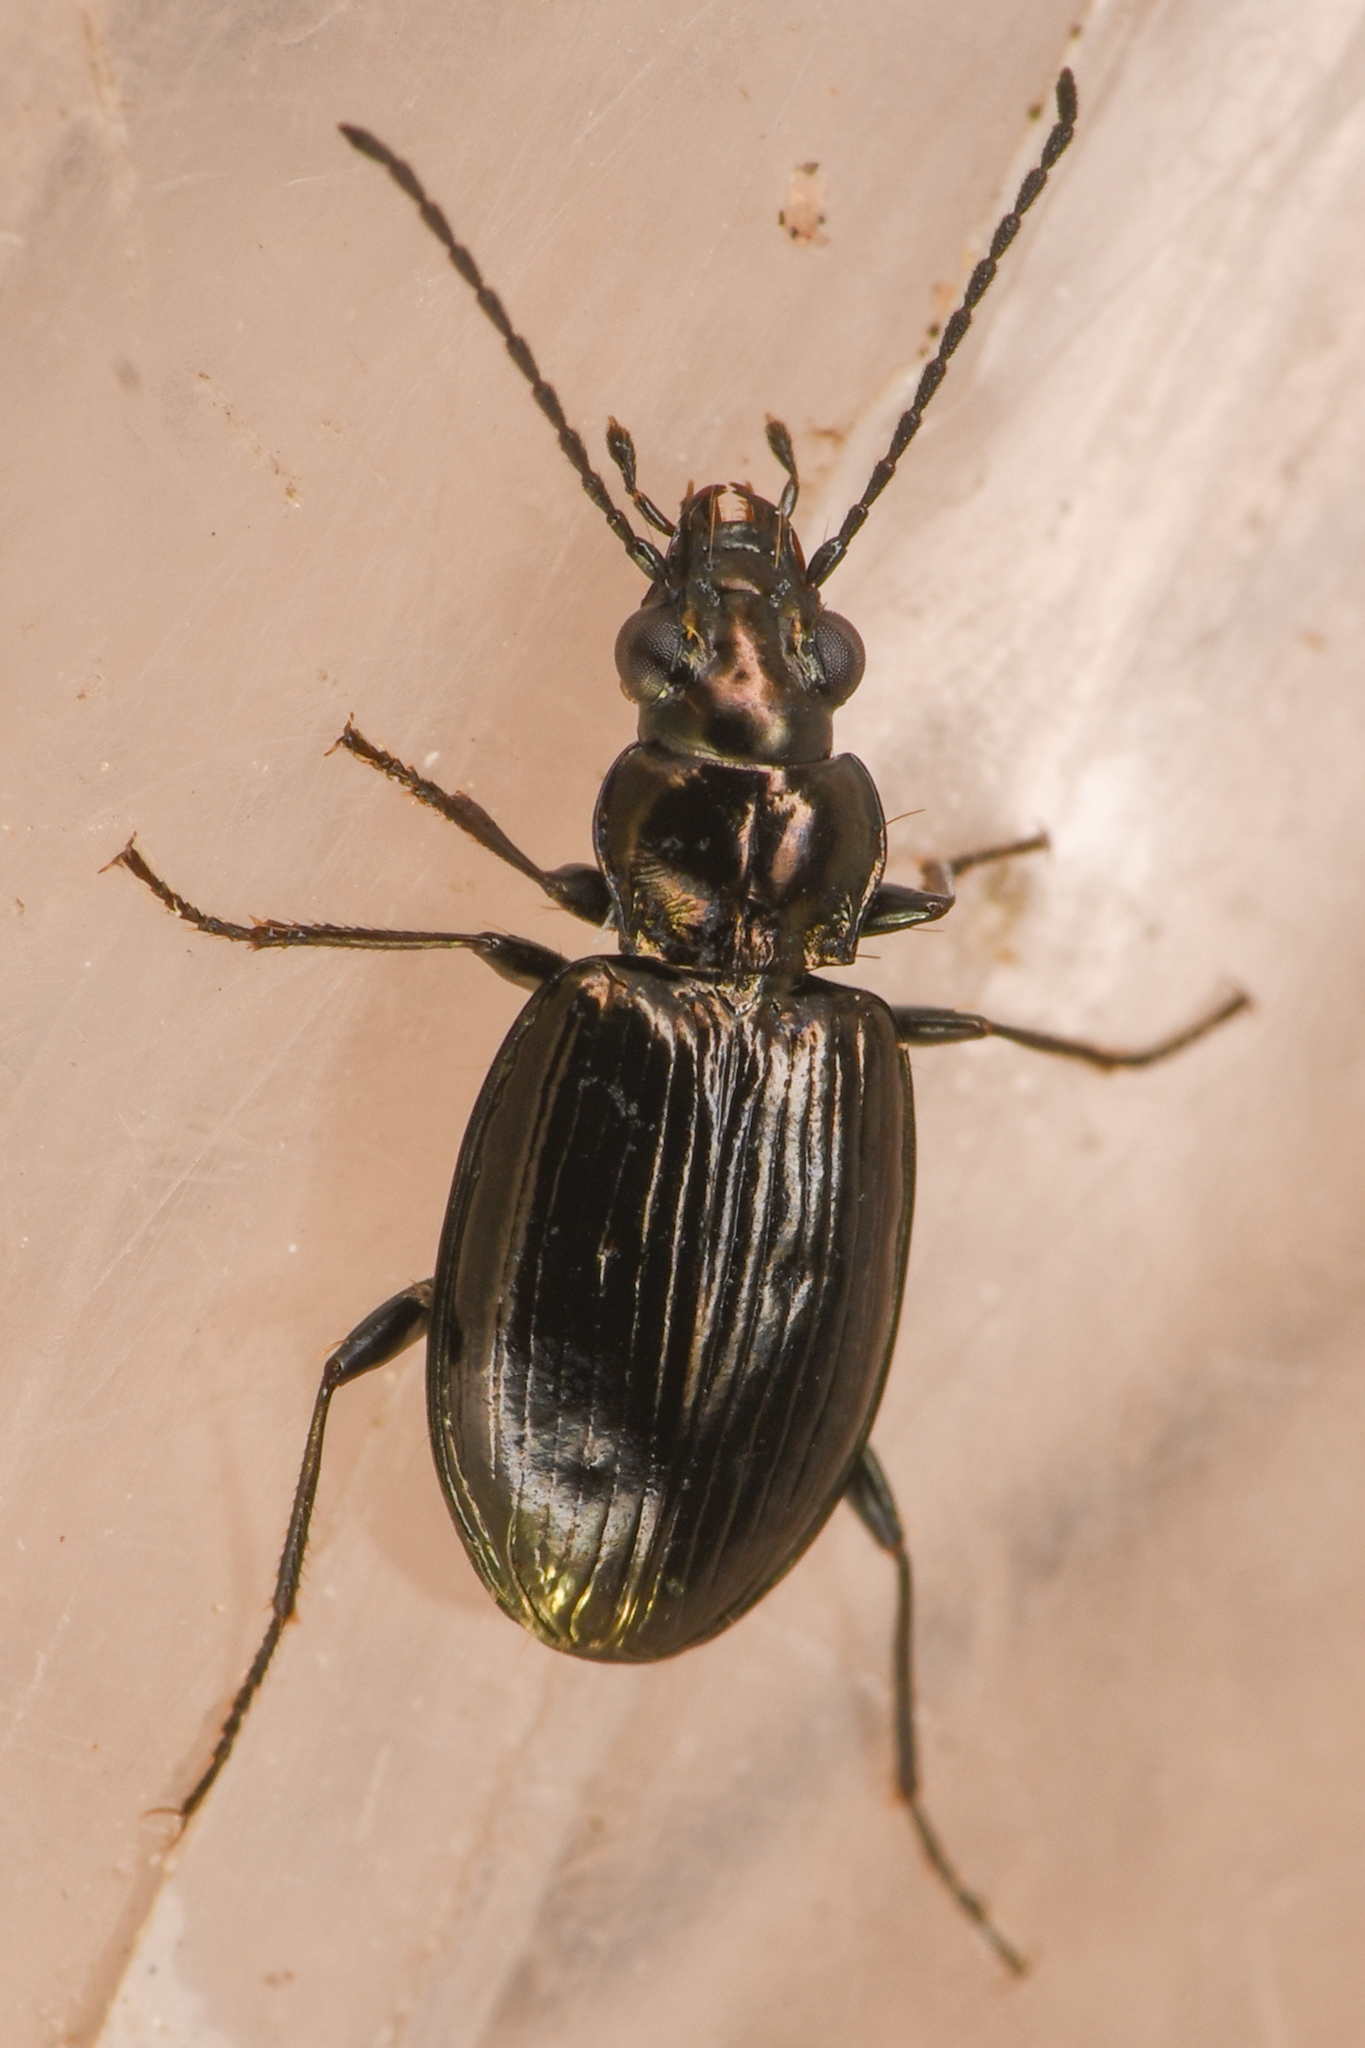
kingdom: Animalia
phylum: Arthropoda
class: Insecta
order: Coleoptera
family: Carabidae
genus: Bembidion
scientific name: Bembidion haruspex
